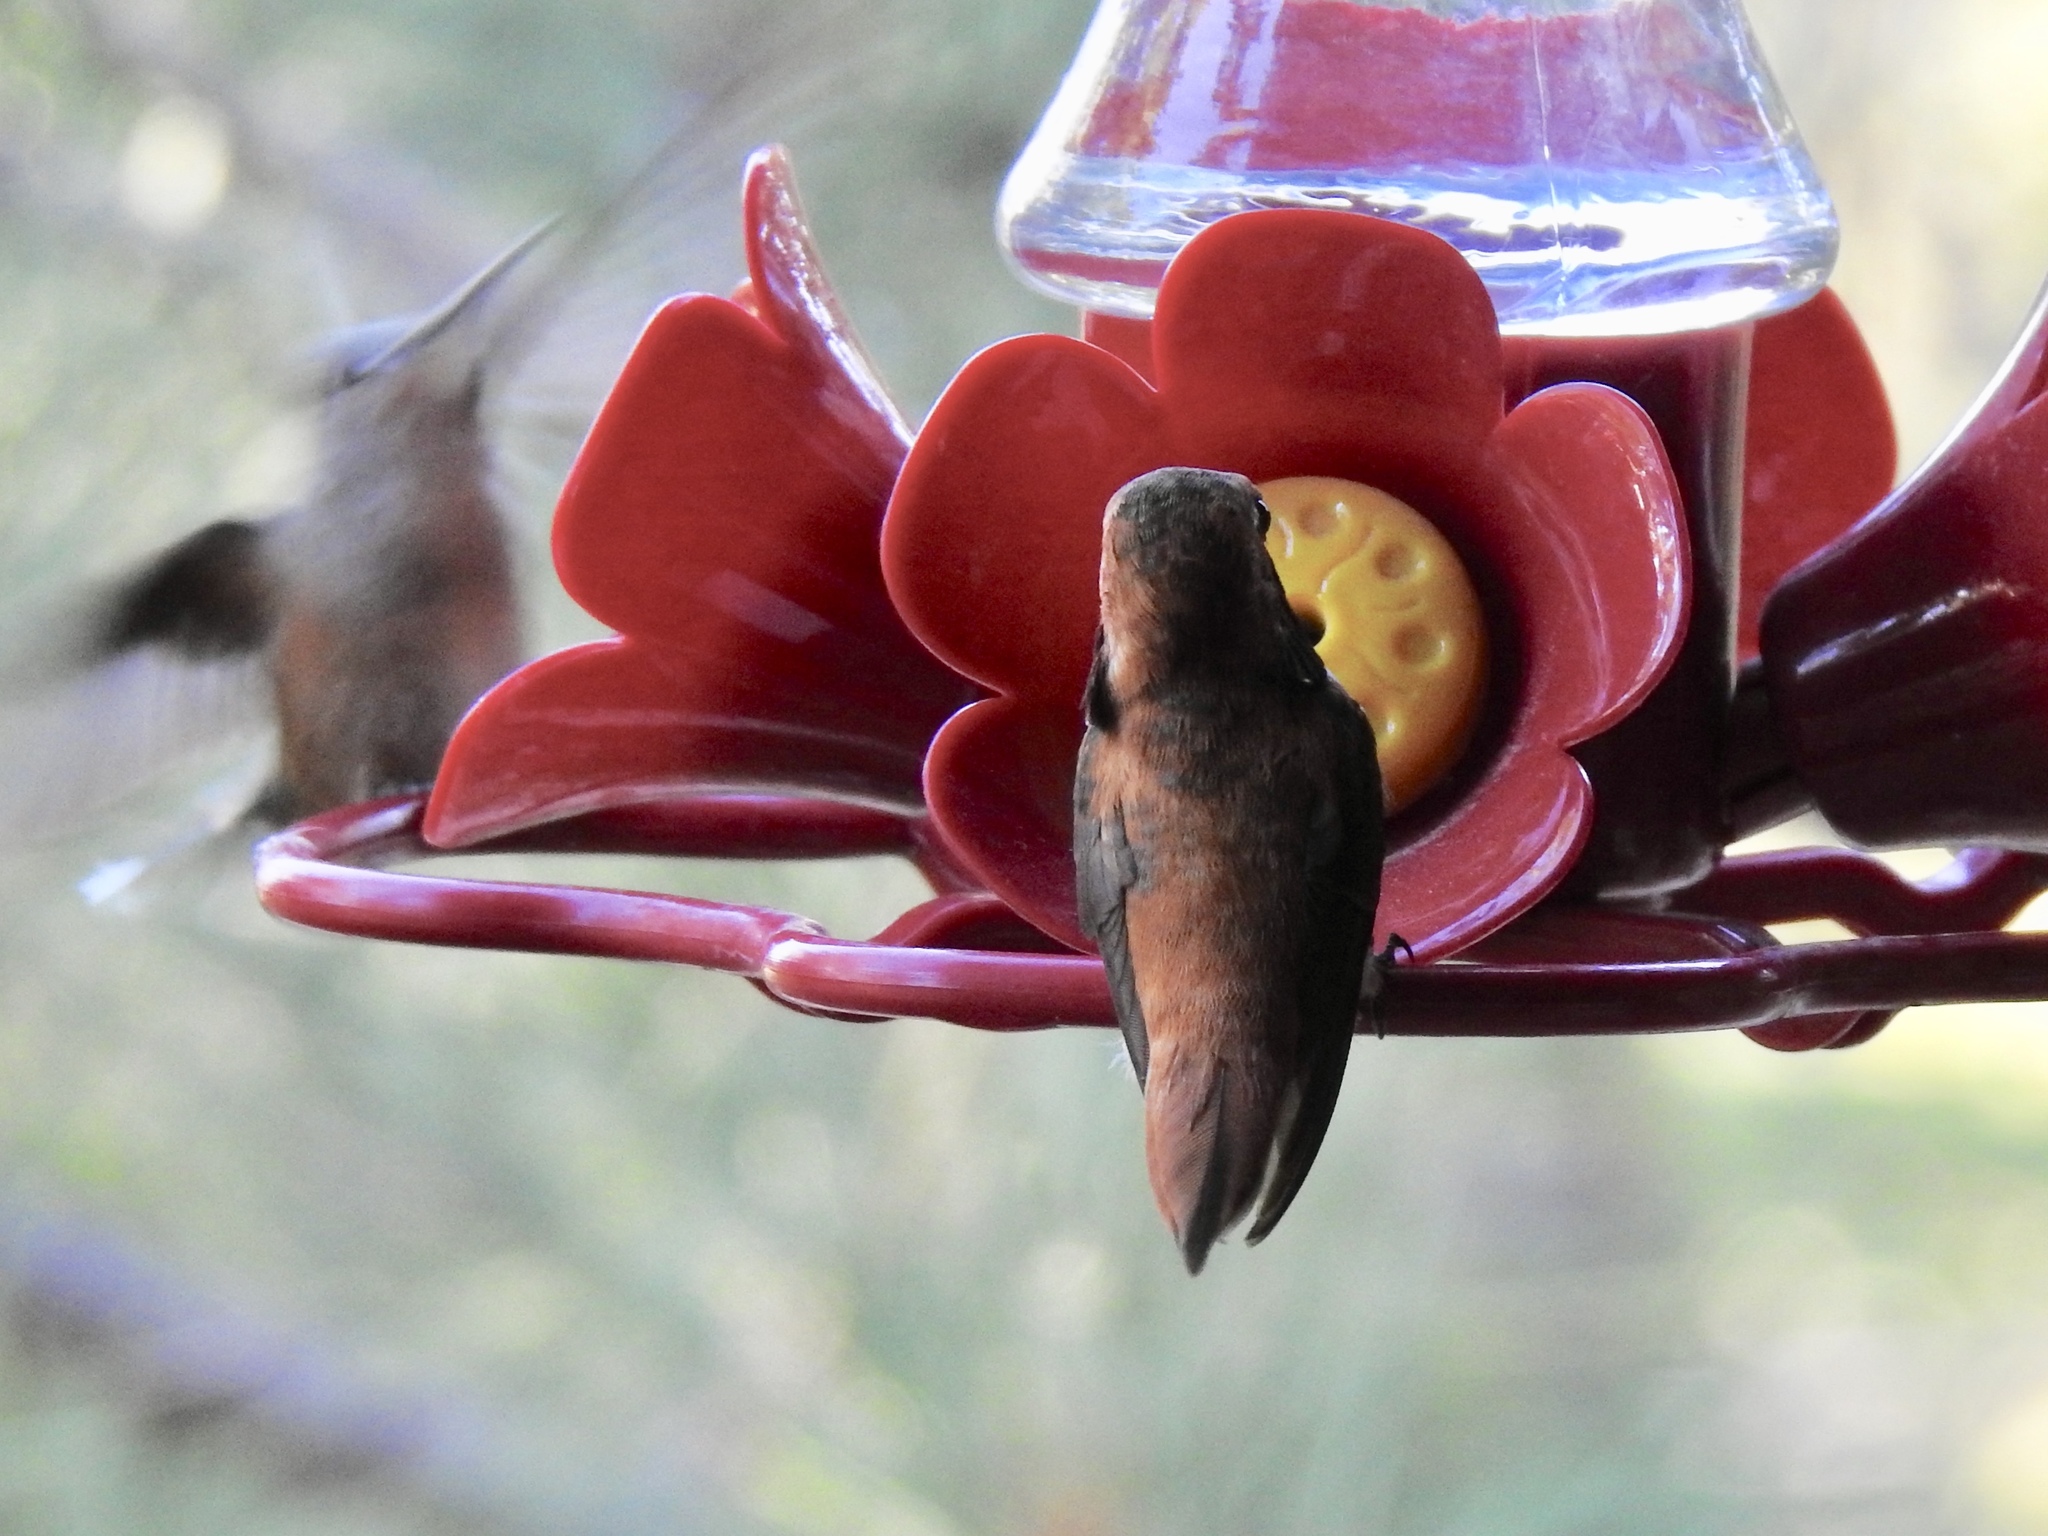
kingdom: Animalia
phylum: Chordata
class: Aves
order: Apodiformes
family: Trochilidae
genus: Selasphorus
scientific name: Selasphorus rufus
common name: Rufous hummingbird
